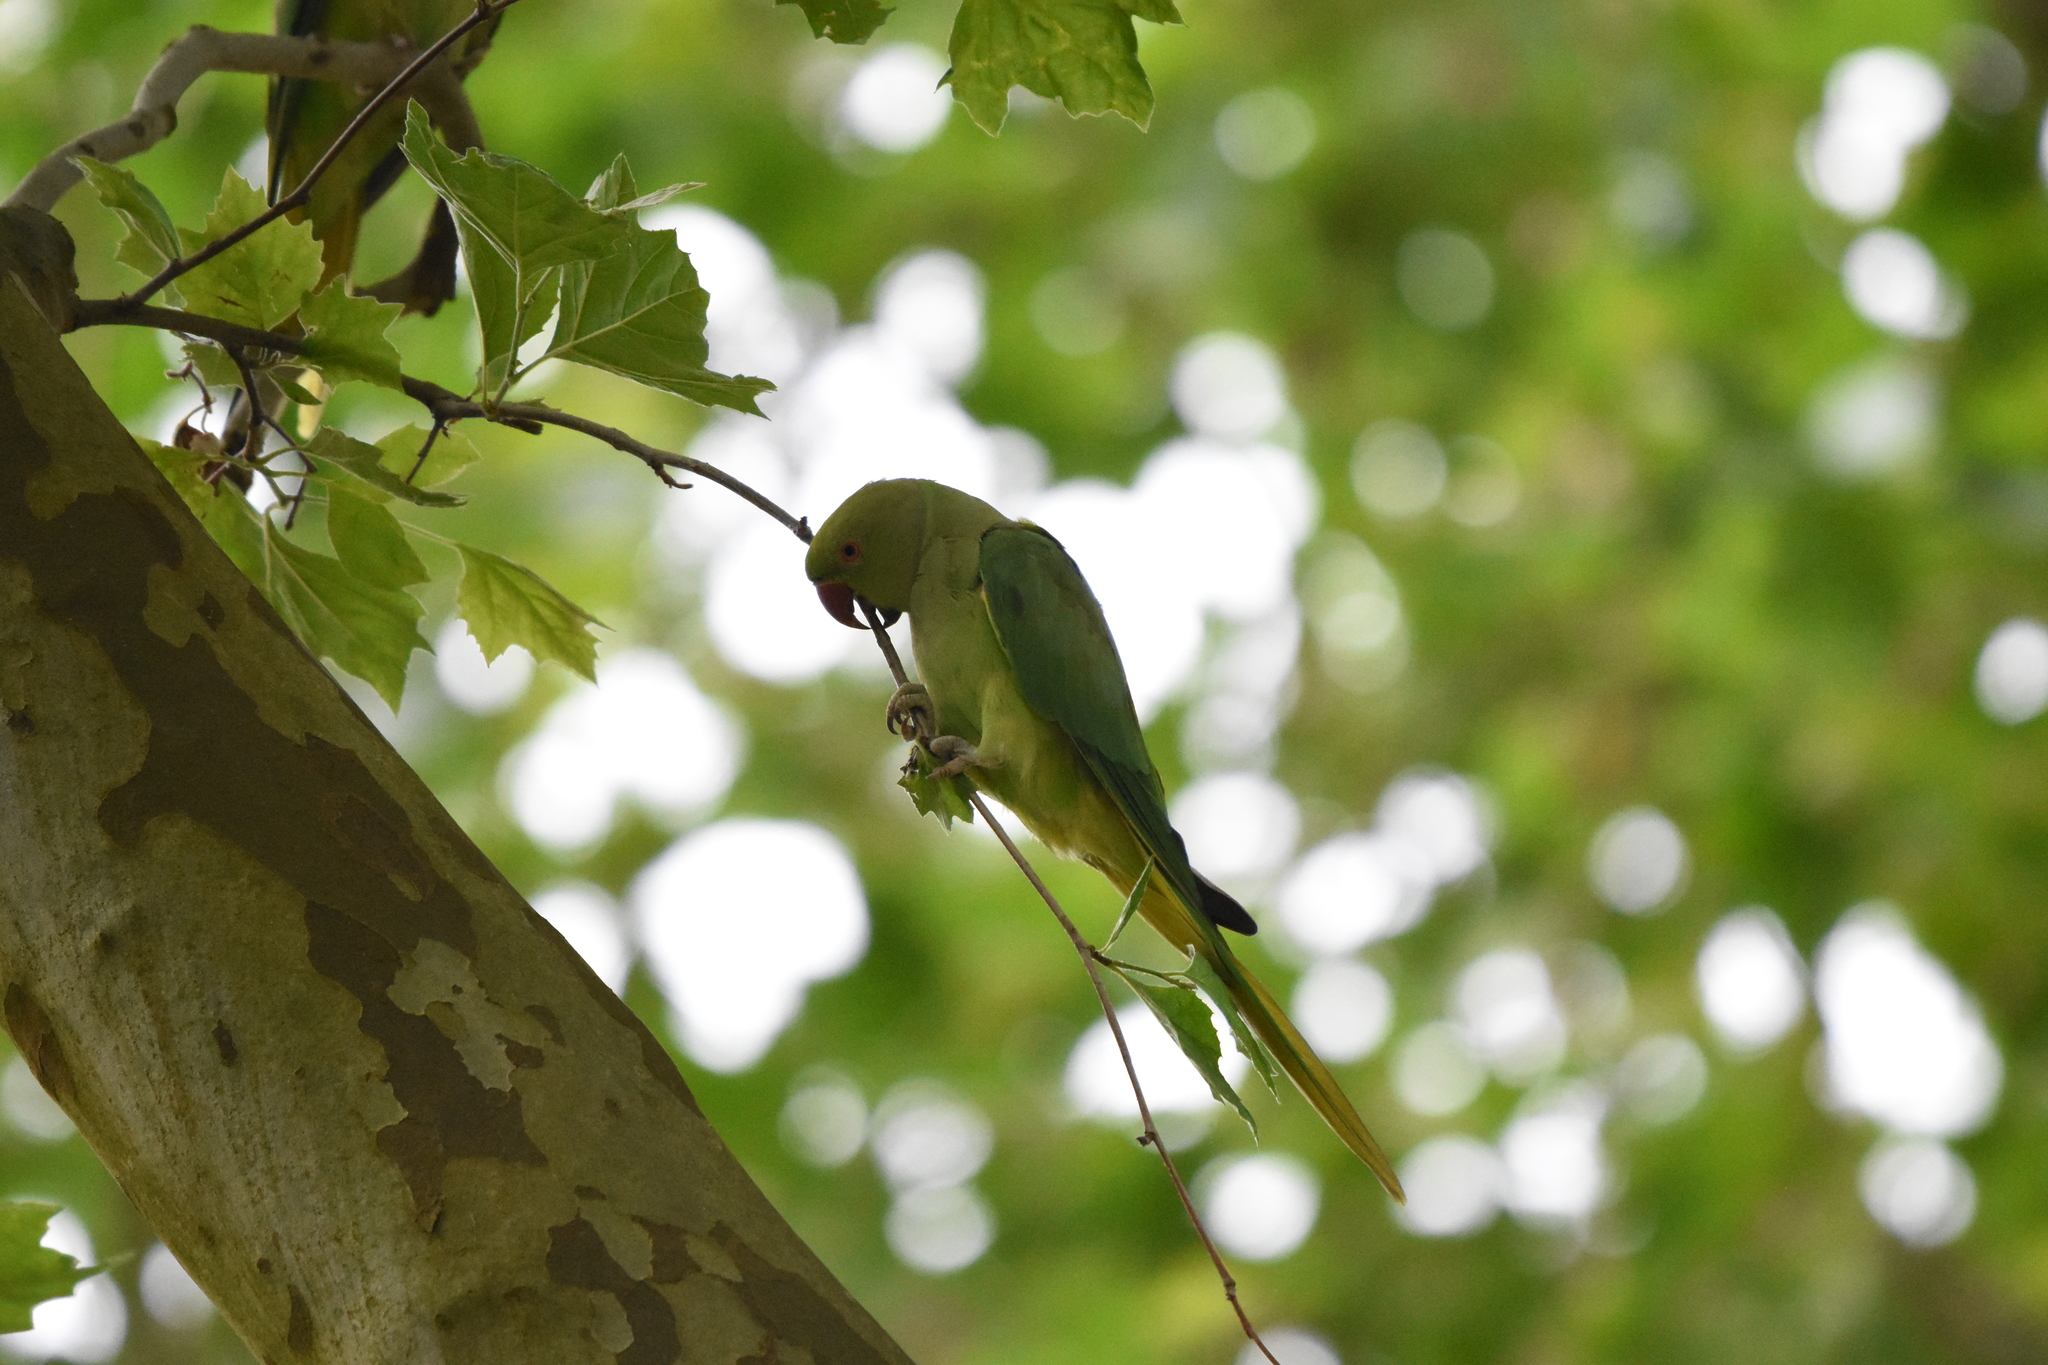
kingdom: Animalia
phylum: Chordata
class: Aves
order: Psittaciformes
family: Psittacidae
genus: Psittacula
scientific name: Psittacula krameri
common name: Rose-ringed parakeet
